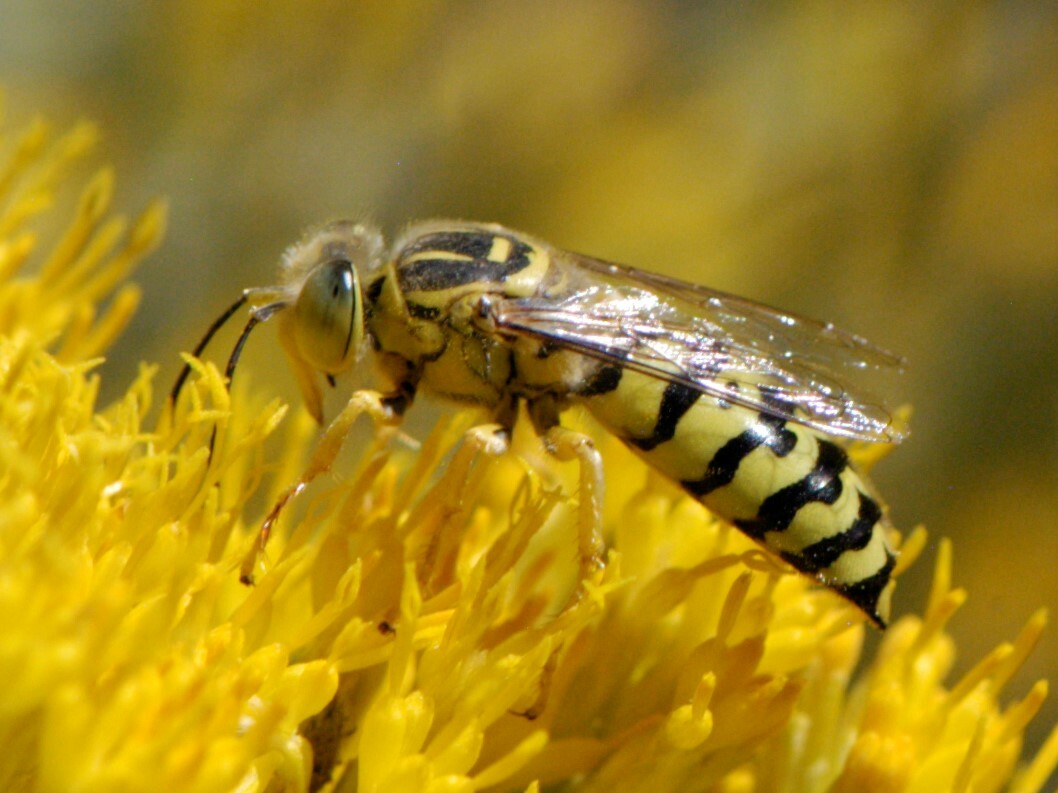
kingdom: Animalia
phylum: Arthropoda
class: Insecta
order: Hymenoptera
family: Crabronidae
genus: Bembix
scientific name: Bembix occidentalis
